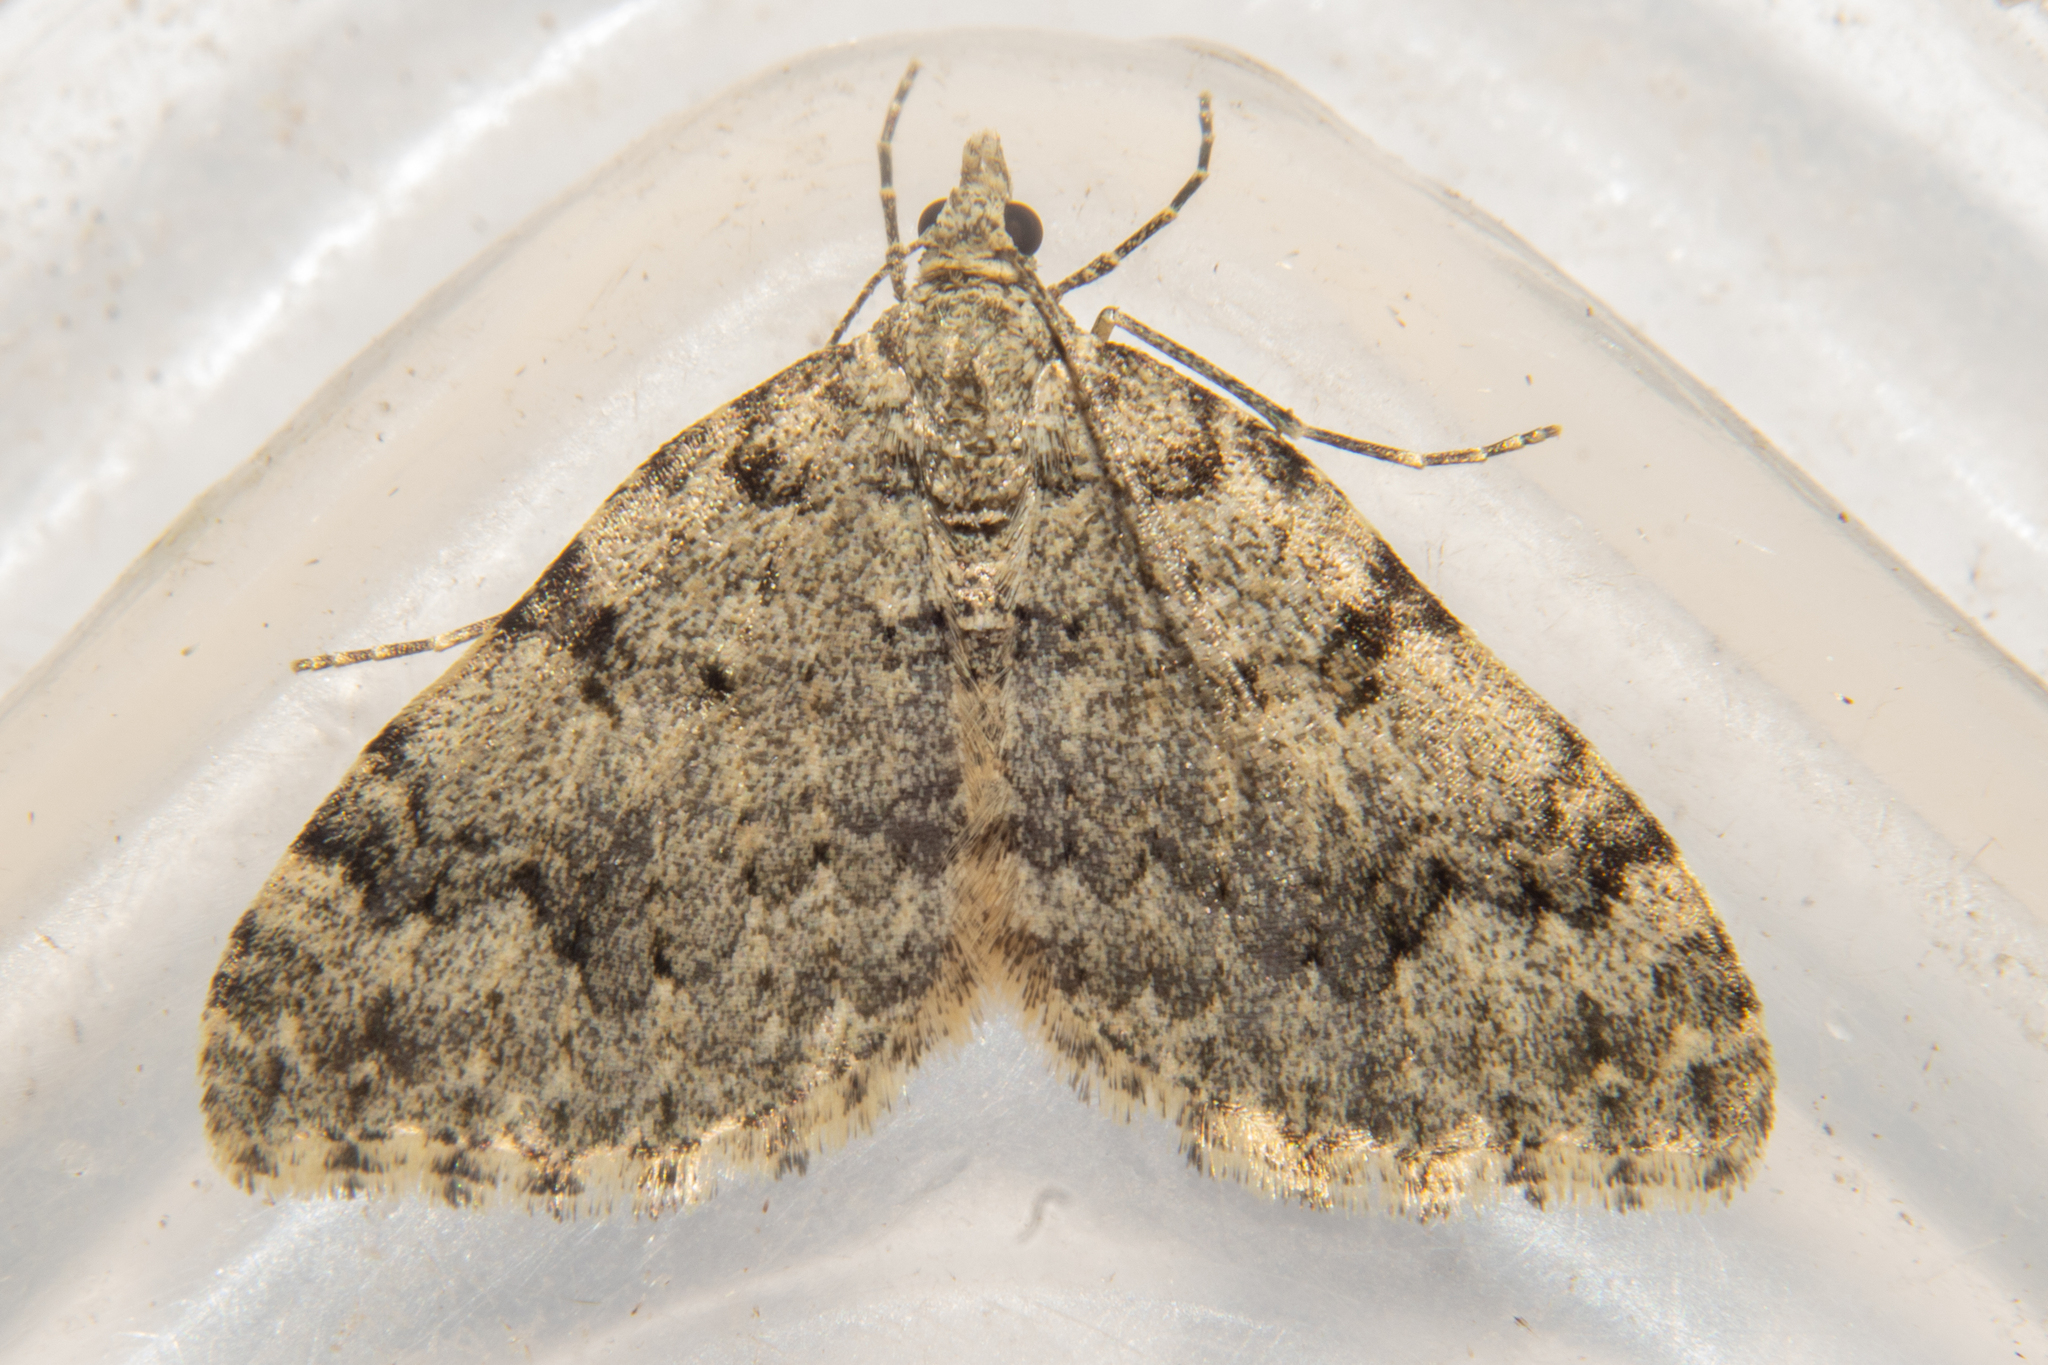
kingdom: Animalia
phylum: Arthropoda
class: Insecta
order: Lepidoptera
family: Geometridae
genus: Helastia
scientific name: Helastia cinerearia
